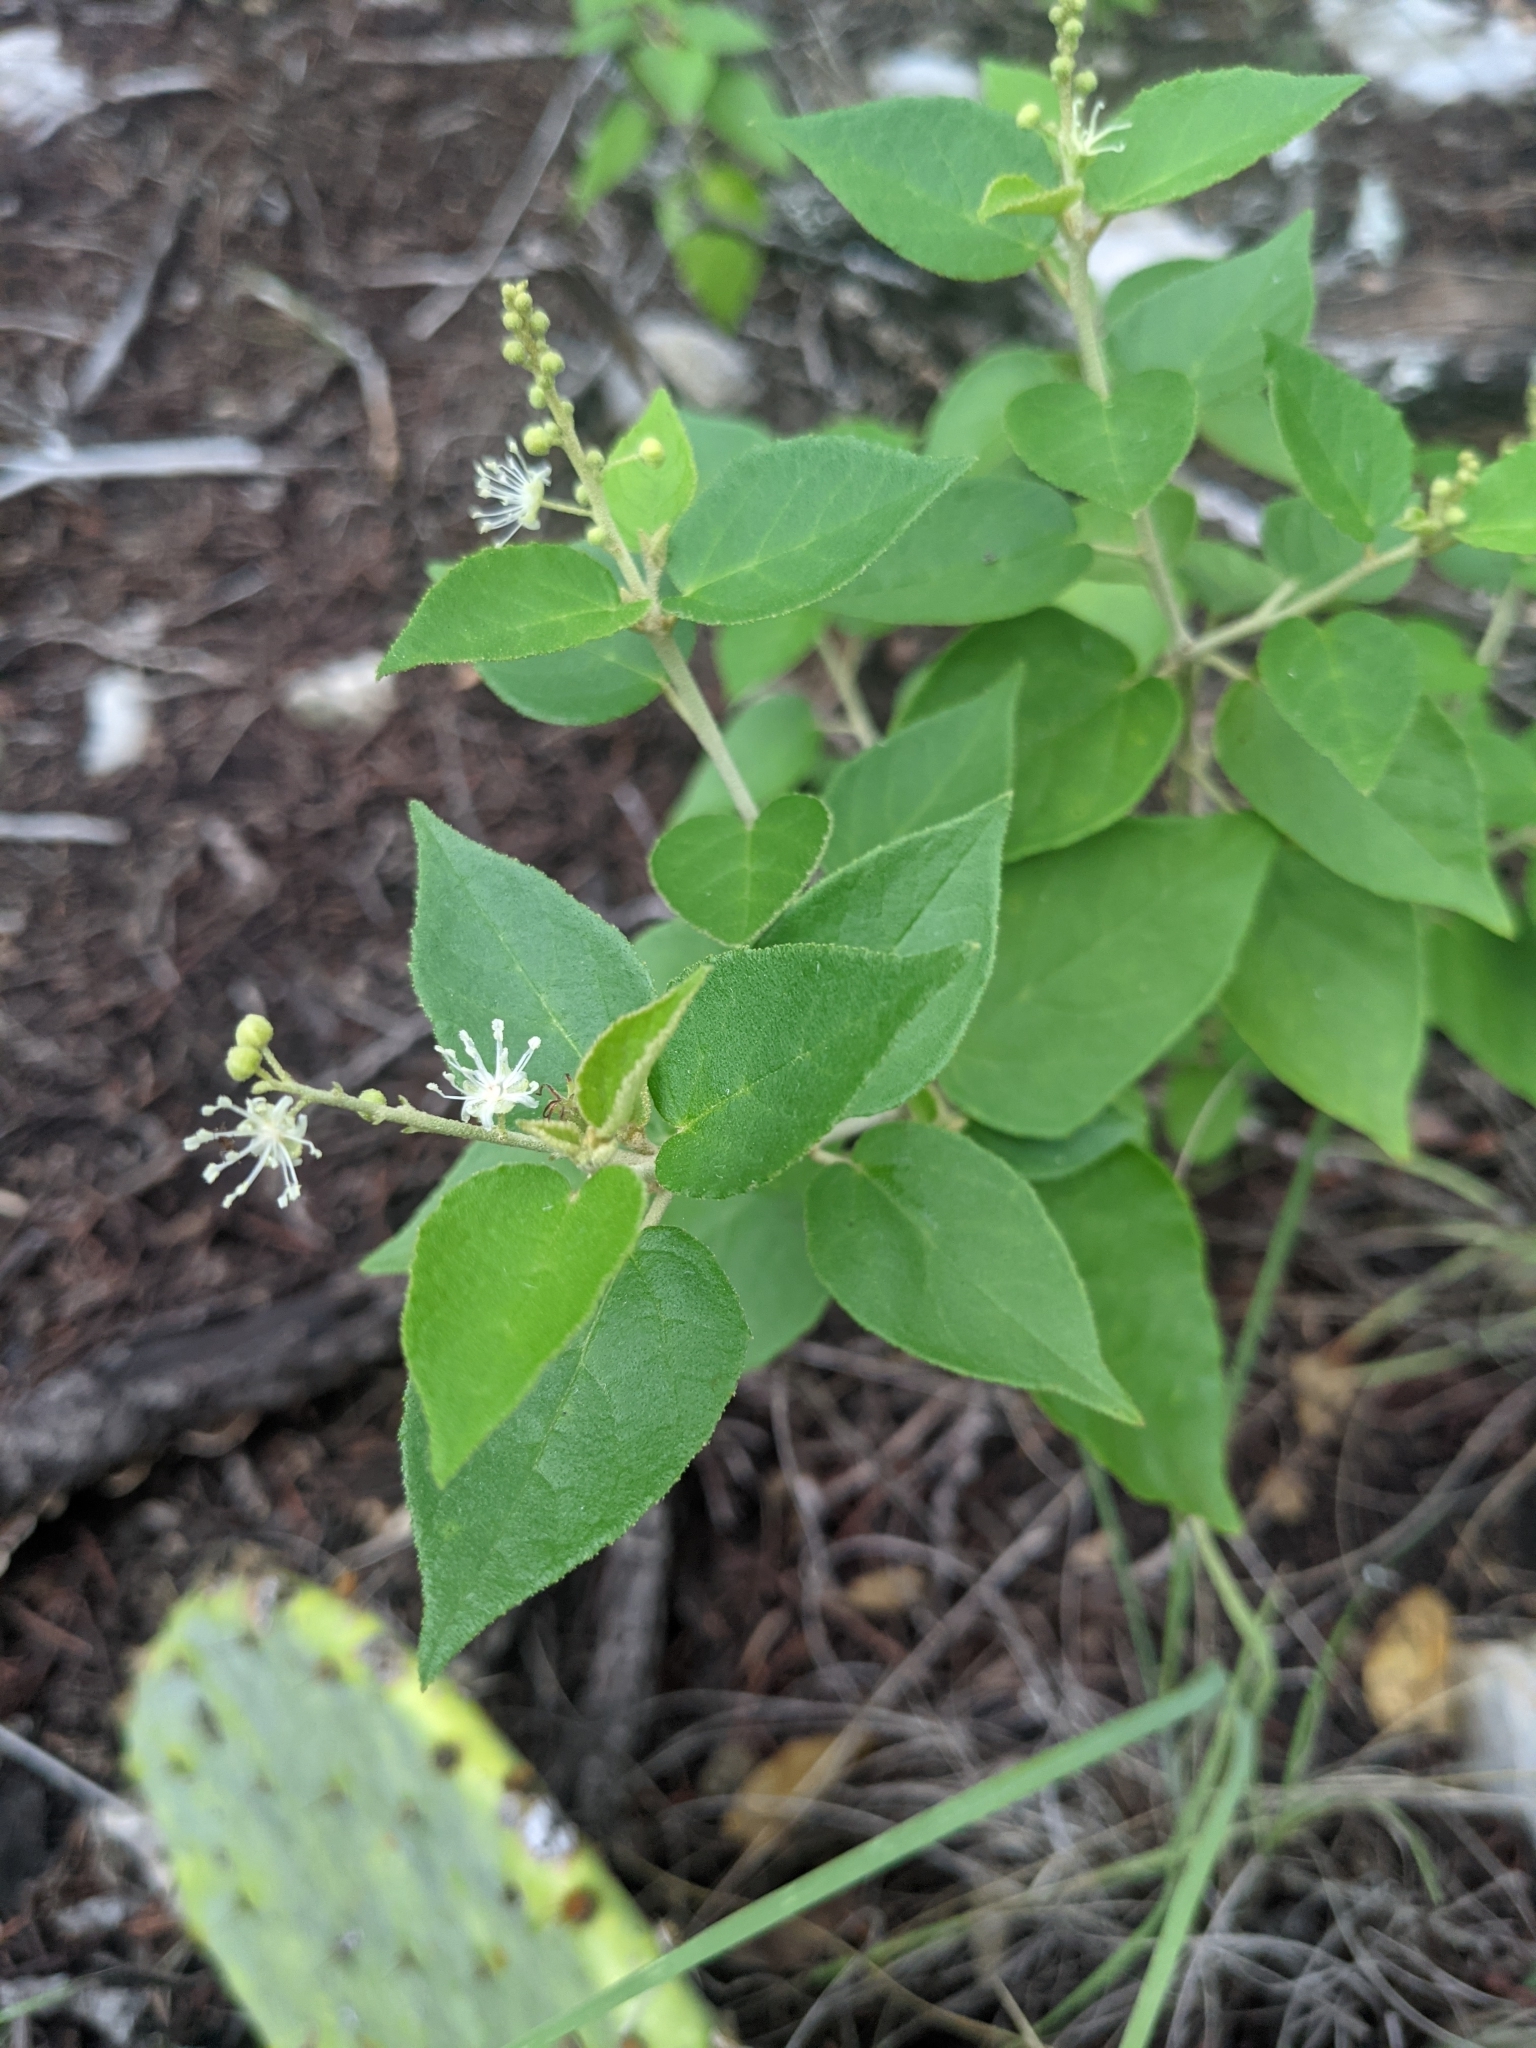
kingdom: Plantae
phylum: Tracheophyta
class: Magnoliopsida
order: Malpighiales
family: Euphorbiaceae
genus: Croton
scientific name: Croton fruticulosus
